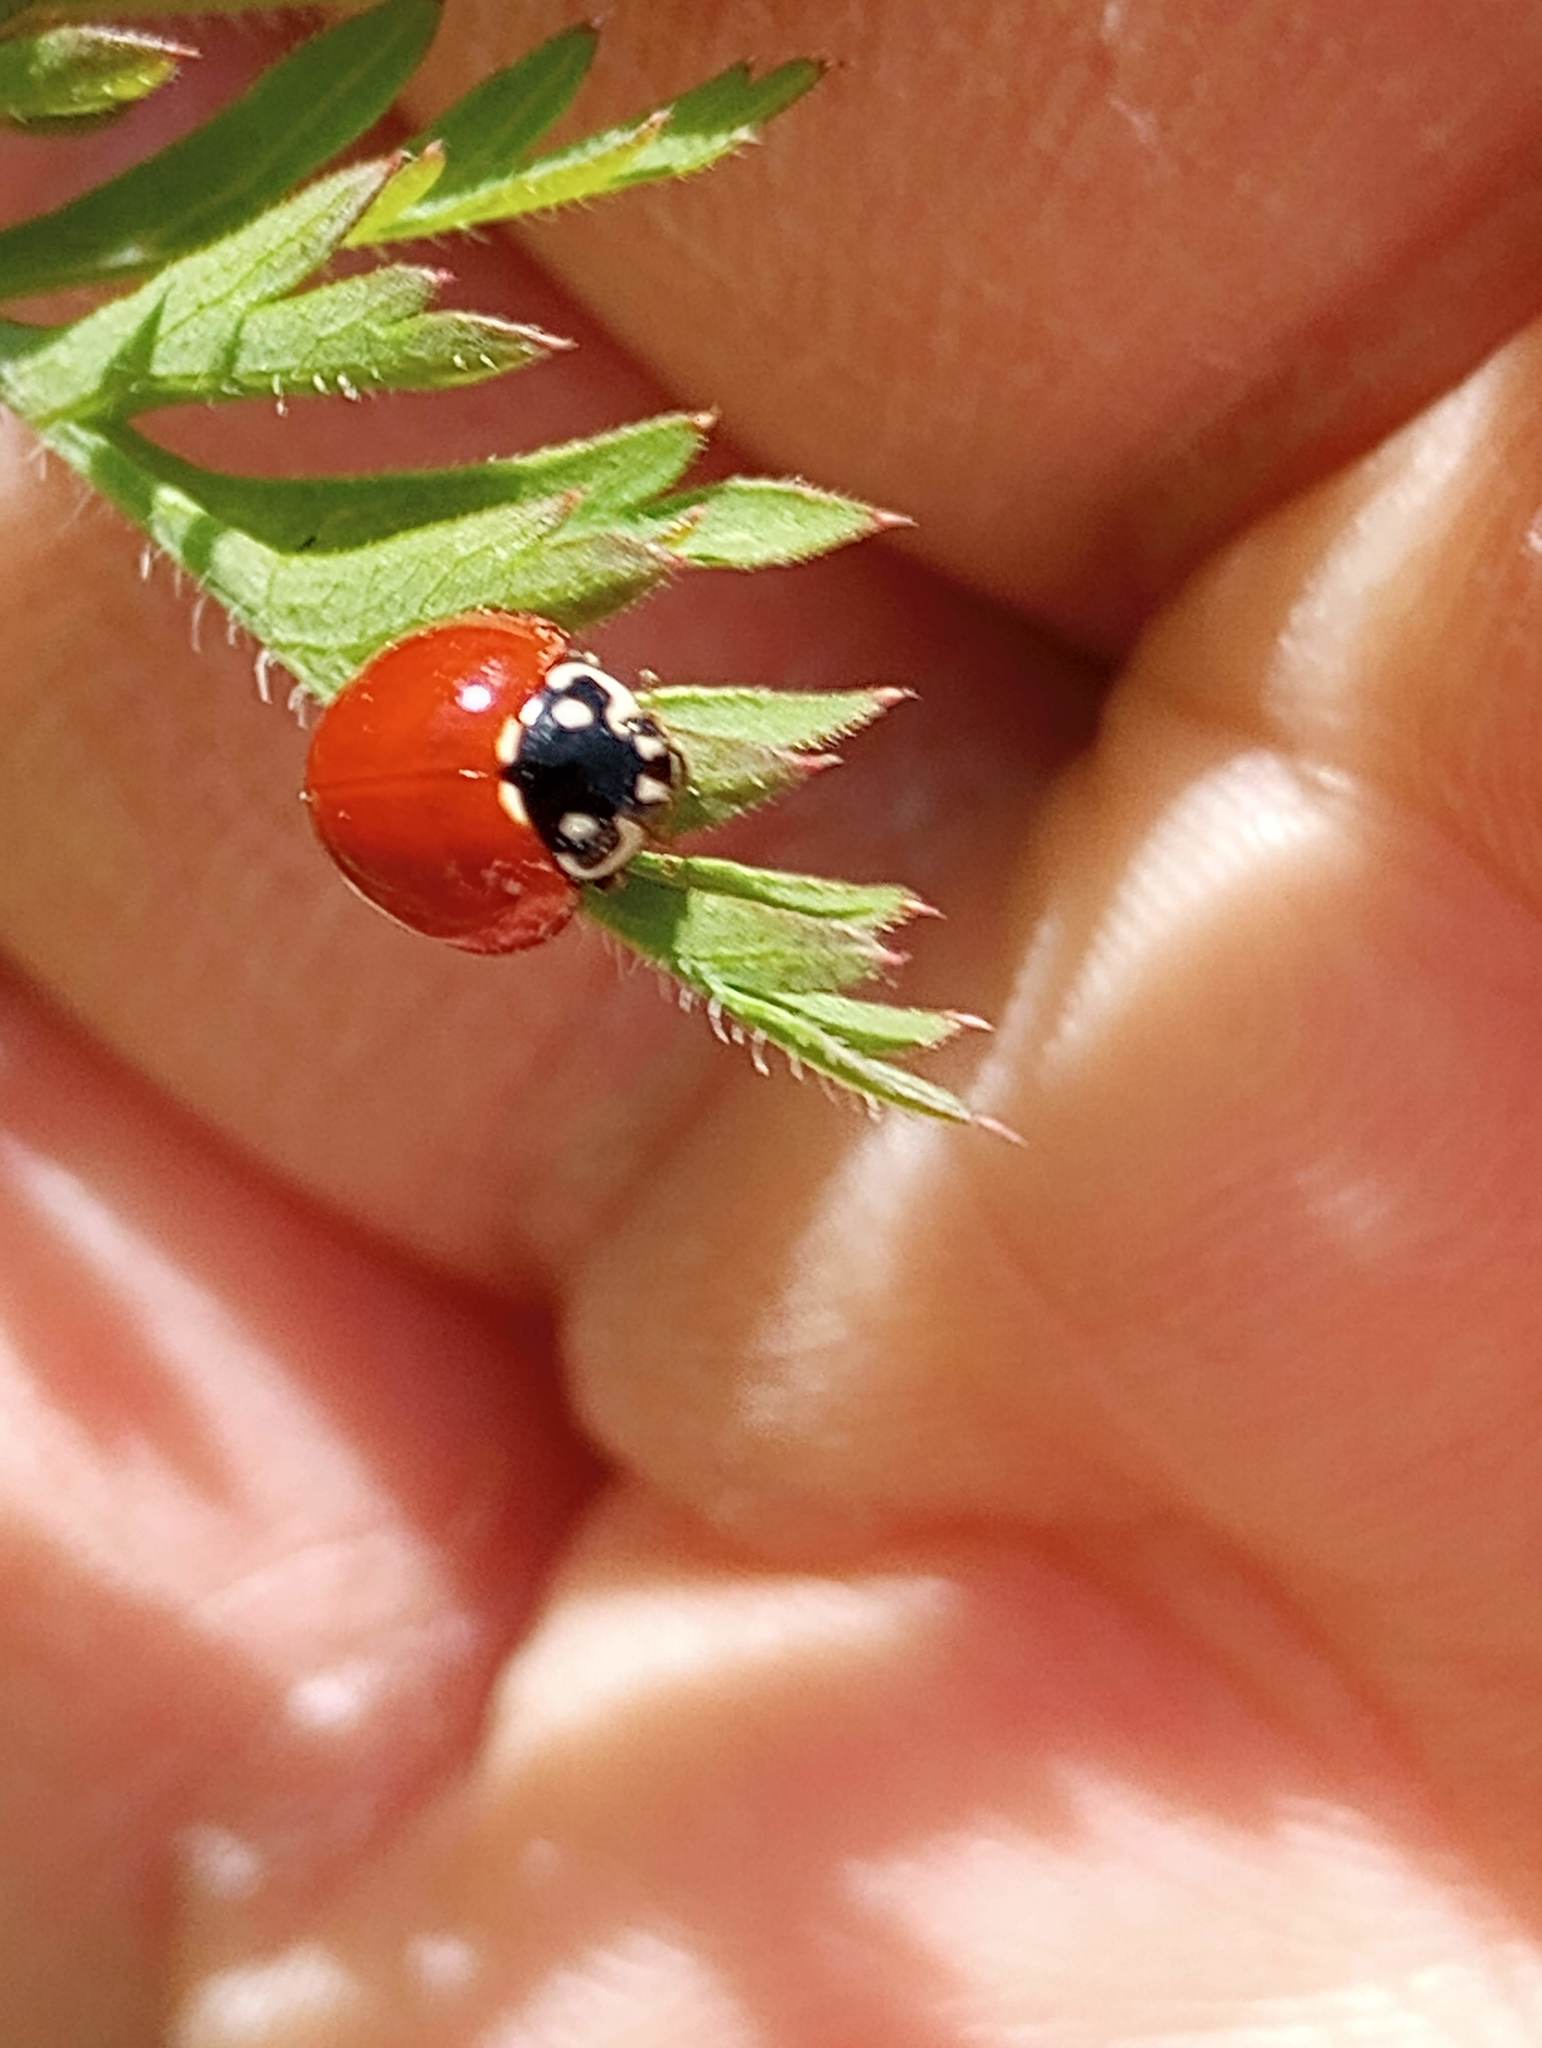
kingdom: Animalia
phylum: Arthropoda
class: Insecta
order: Coleoptera
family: Coccinellidae
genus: Cycloneda
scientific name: Cycloneda sanguinea
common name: Ladybird beetle
